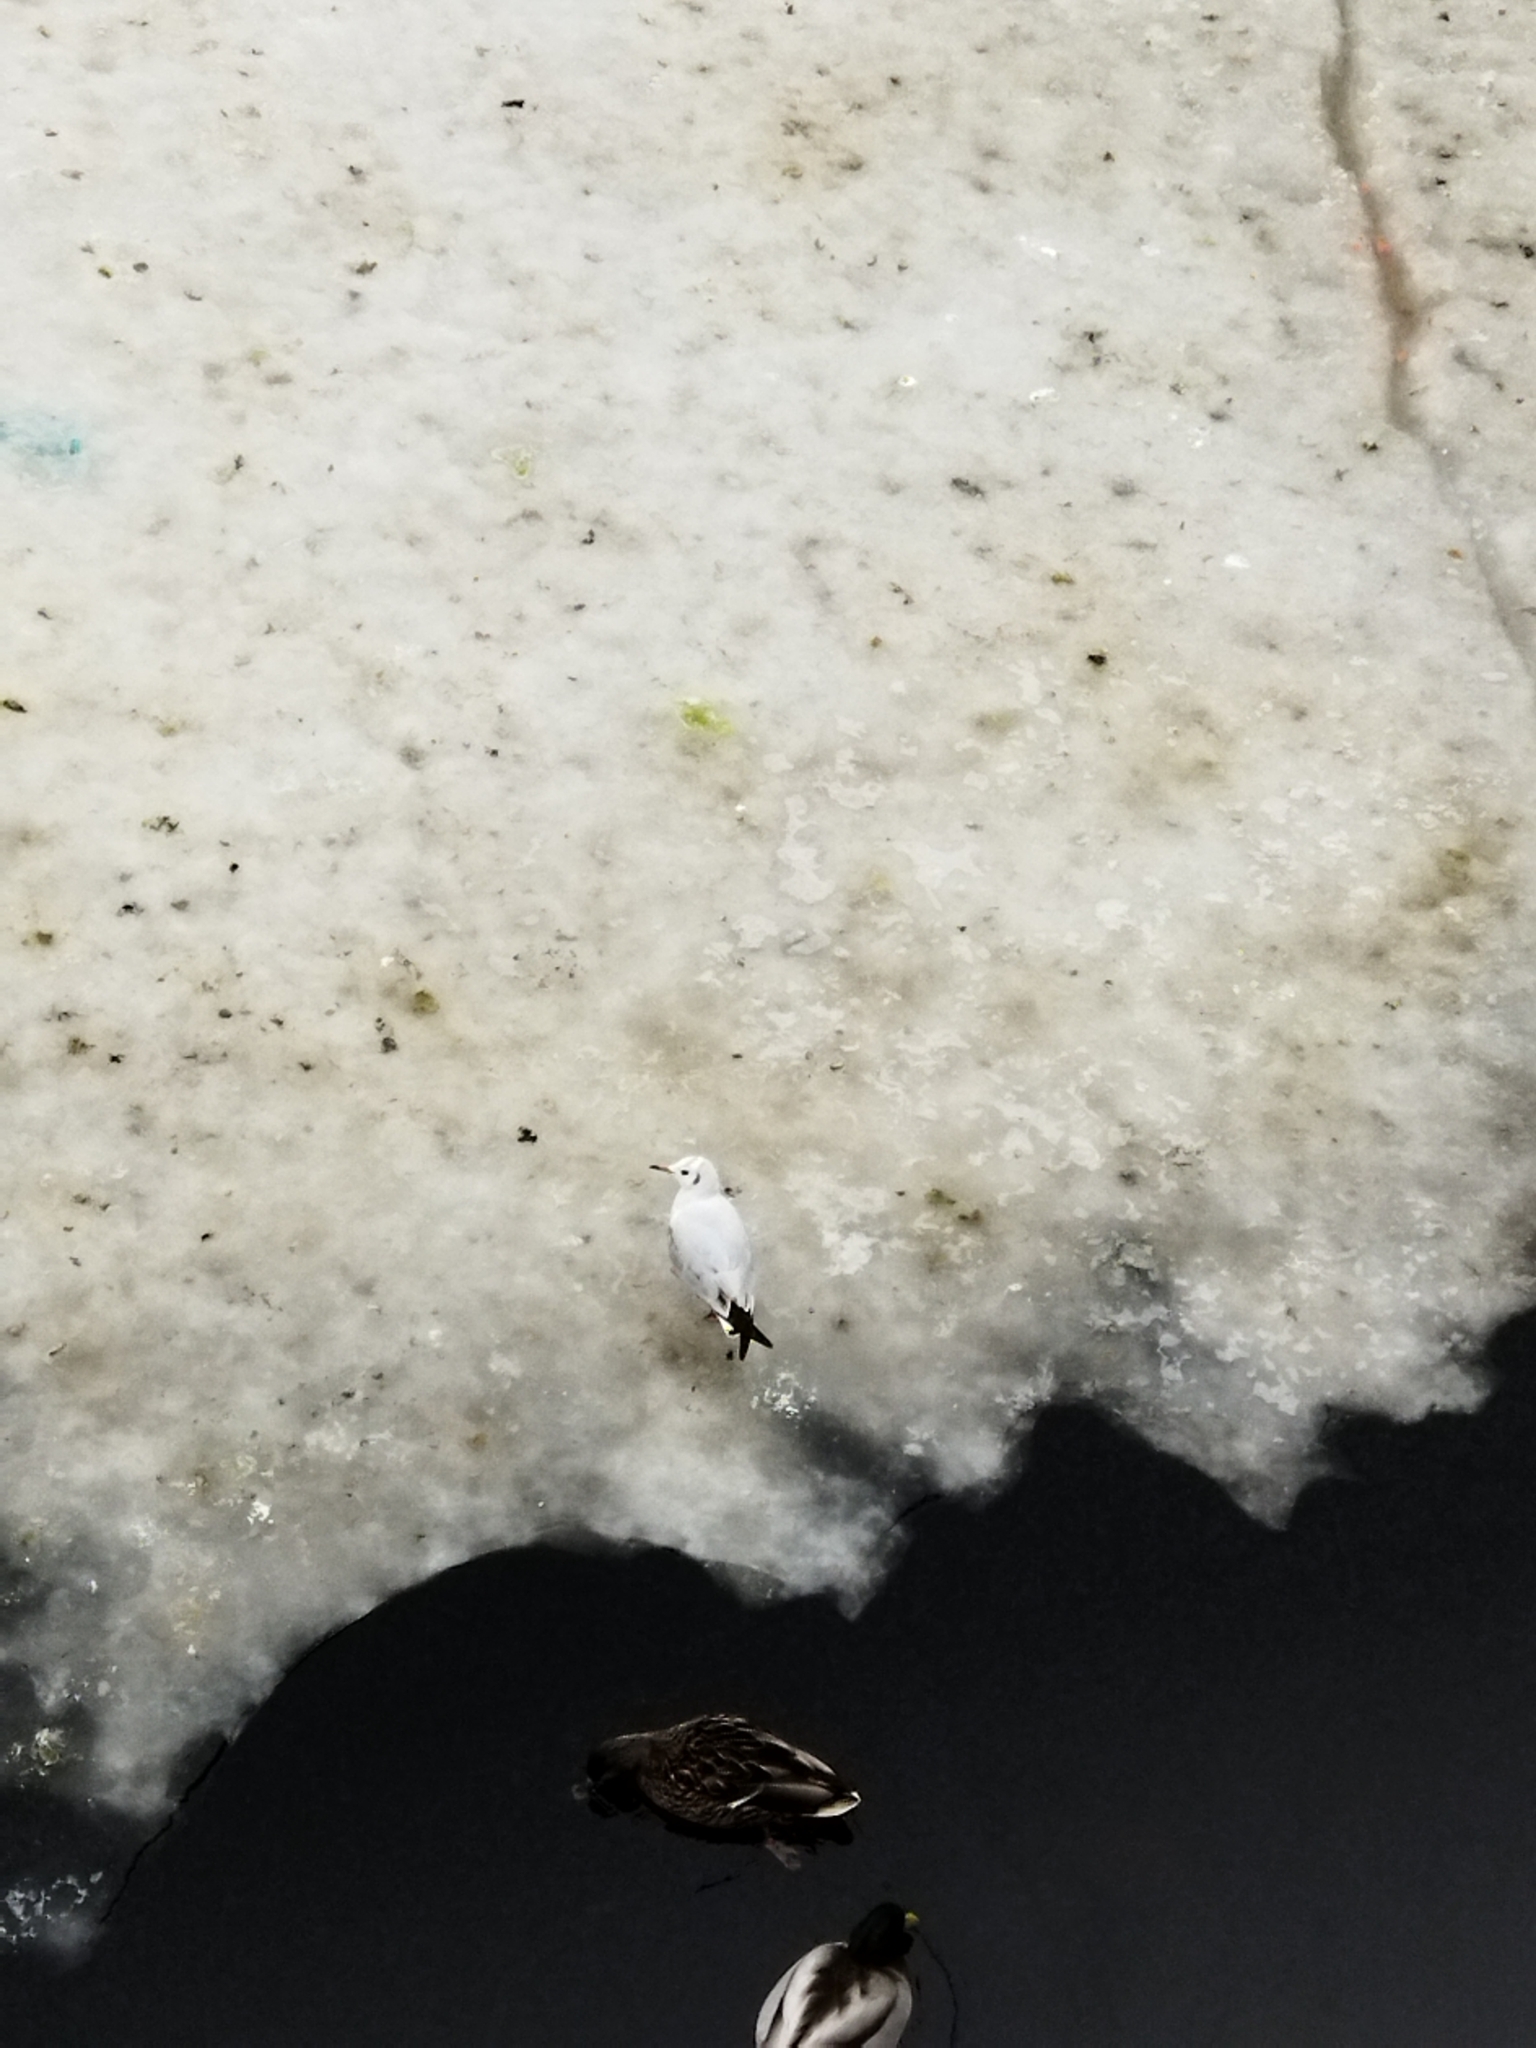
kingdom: Animalia
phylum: Chordata
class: Aves
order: Charadriiformes
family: Laridae
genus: Chroicocephalus
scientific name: Chroicocephalus ridibundus
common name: Black-headed gull
